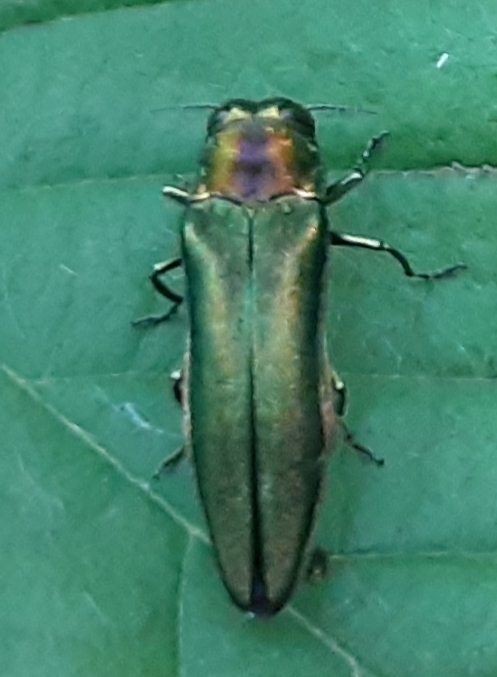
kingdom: Animalia
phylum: Arthropoda
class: Insecta
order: Coleoptera
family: Buprestidae
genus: Agrilus
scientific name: Agrilus planipennis
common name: Emerald ash borer
